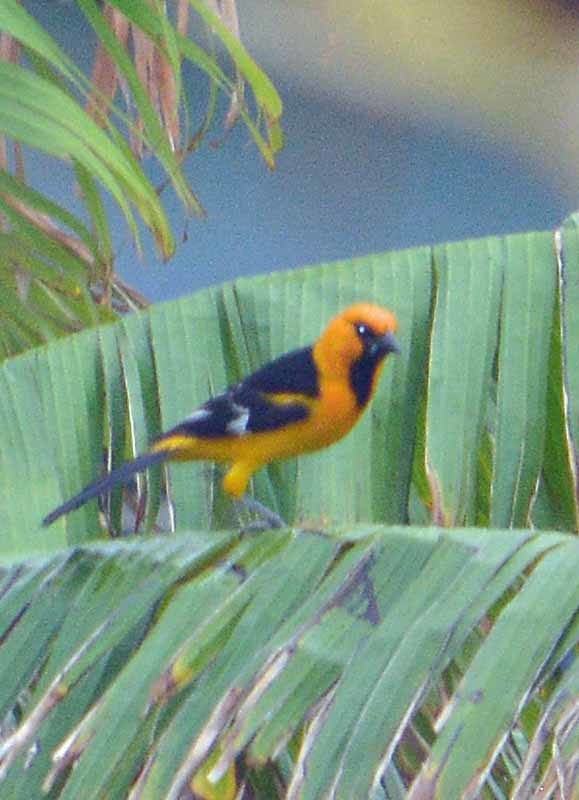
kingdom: Animalia
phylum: Chordata
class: Aves
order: Passeriformes
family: Icteridae
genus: Icterus
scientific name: Icterus gularis
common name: Altamira oriole
